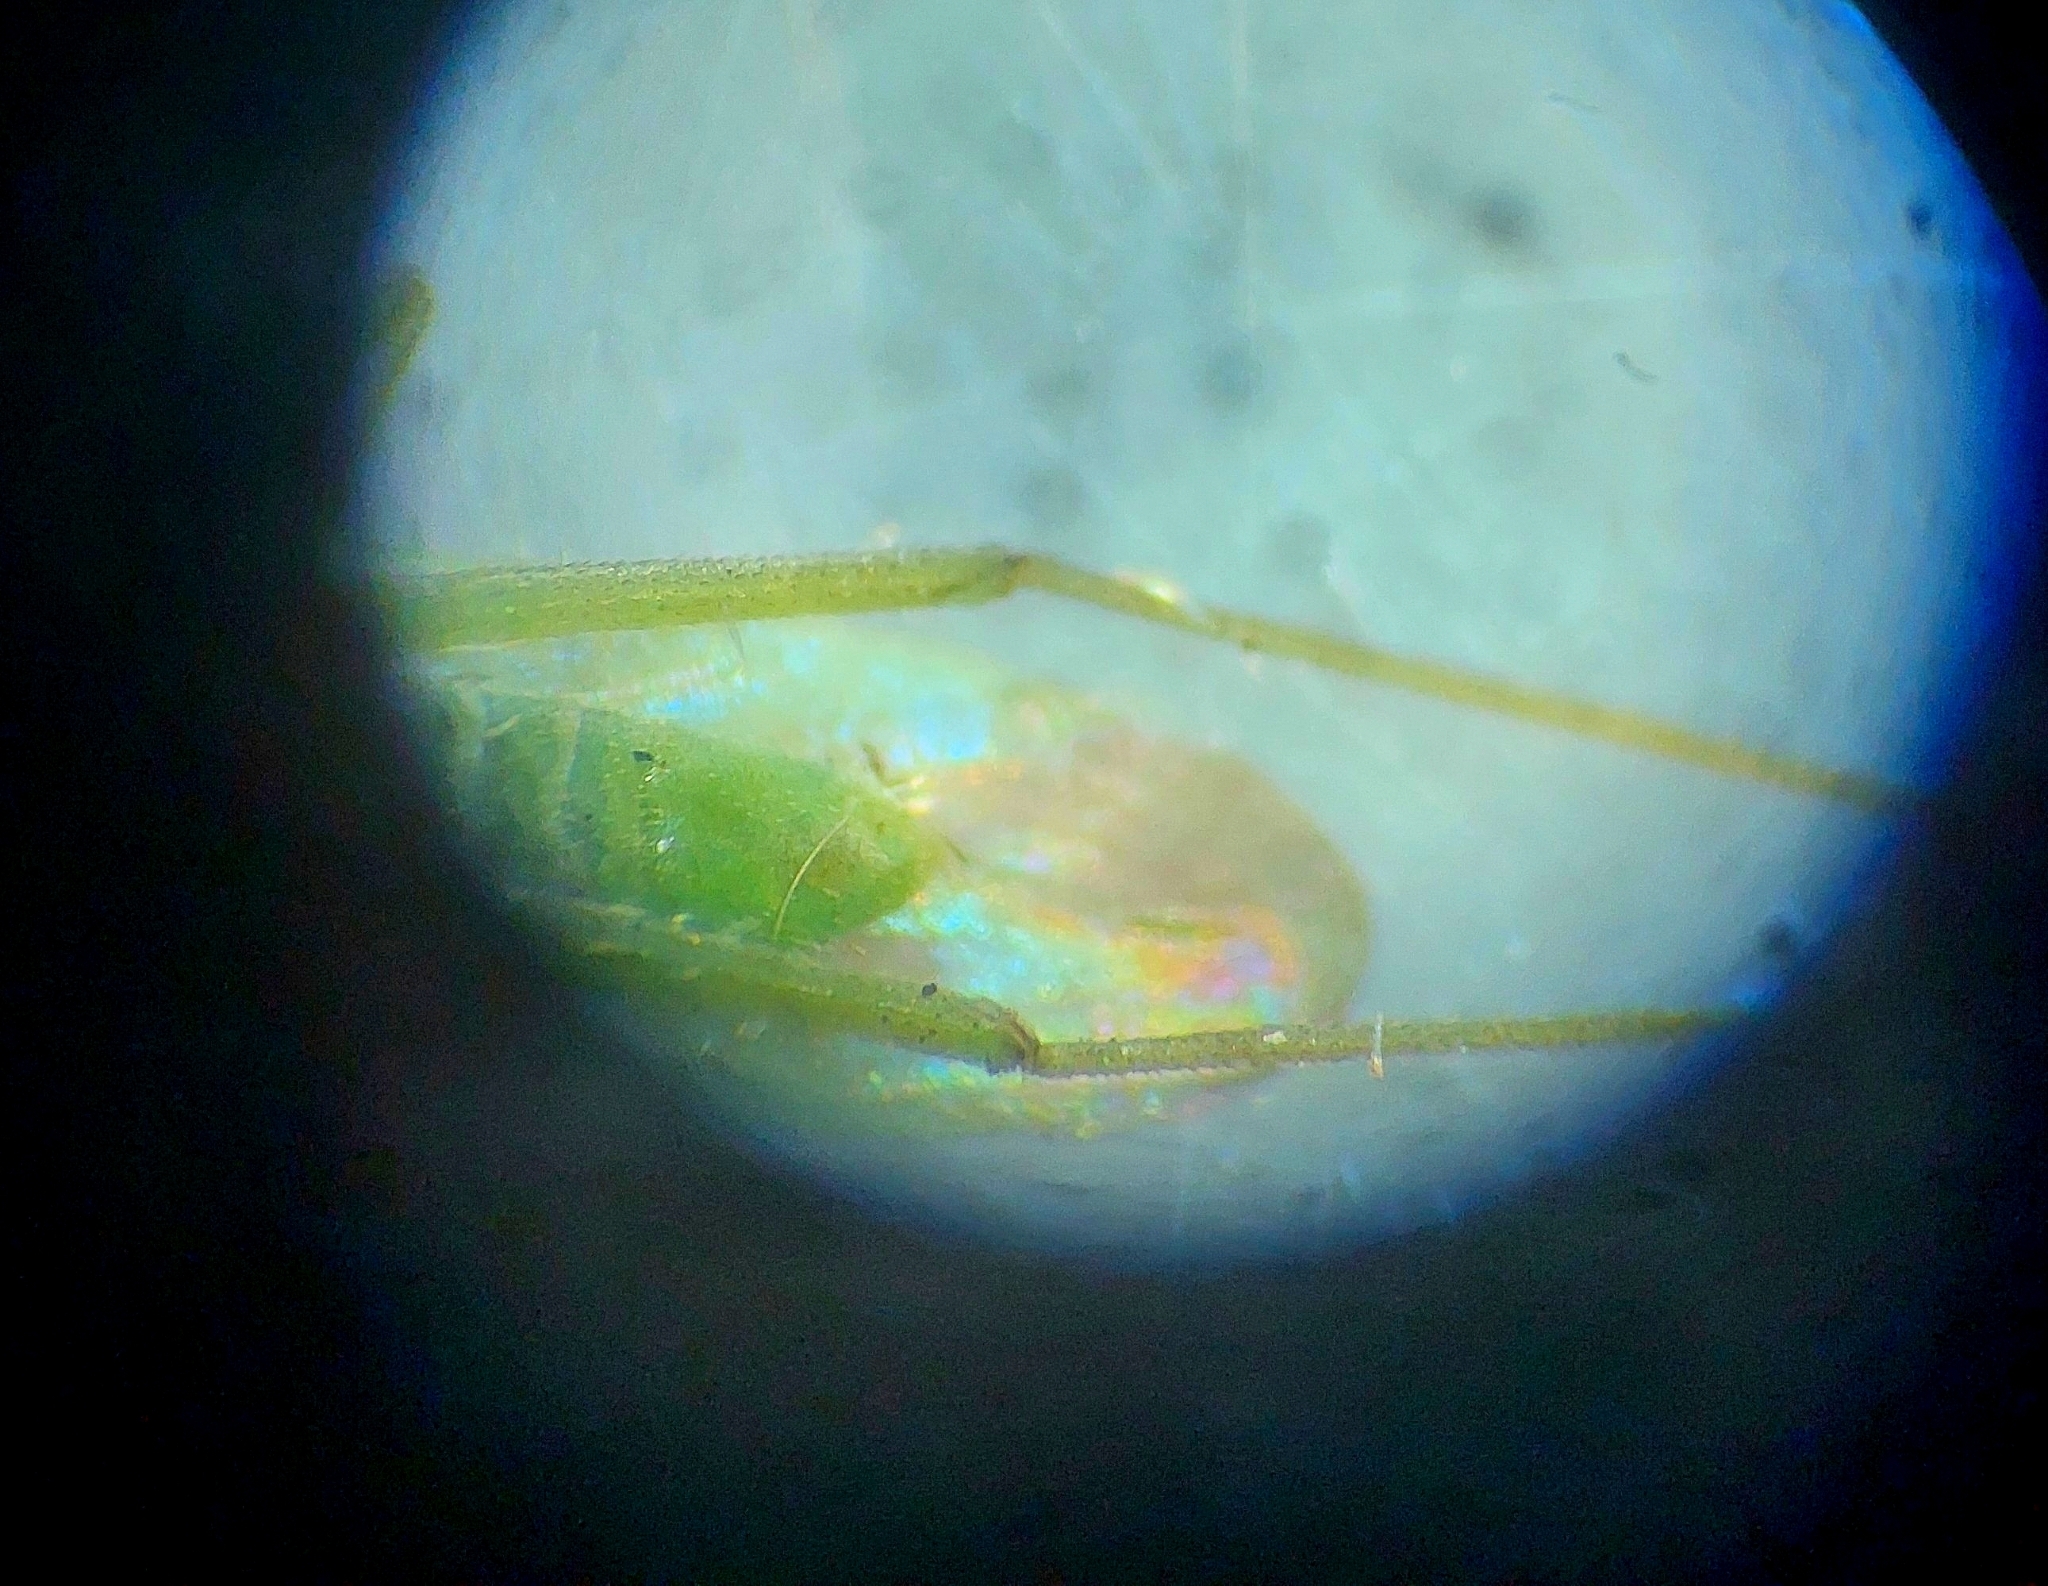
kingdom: Animalia
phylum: Arthropoda
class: Insecta
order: Hemiptera
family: Miridae
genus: Trigonotylus
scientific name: Trigonotylus caelestialium
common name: Rice leaf bug
